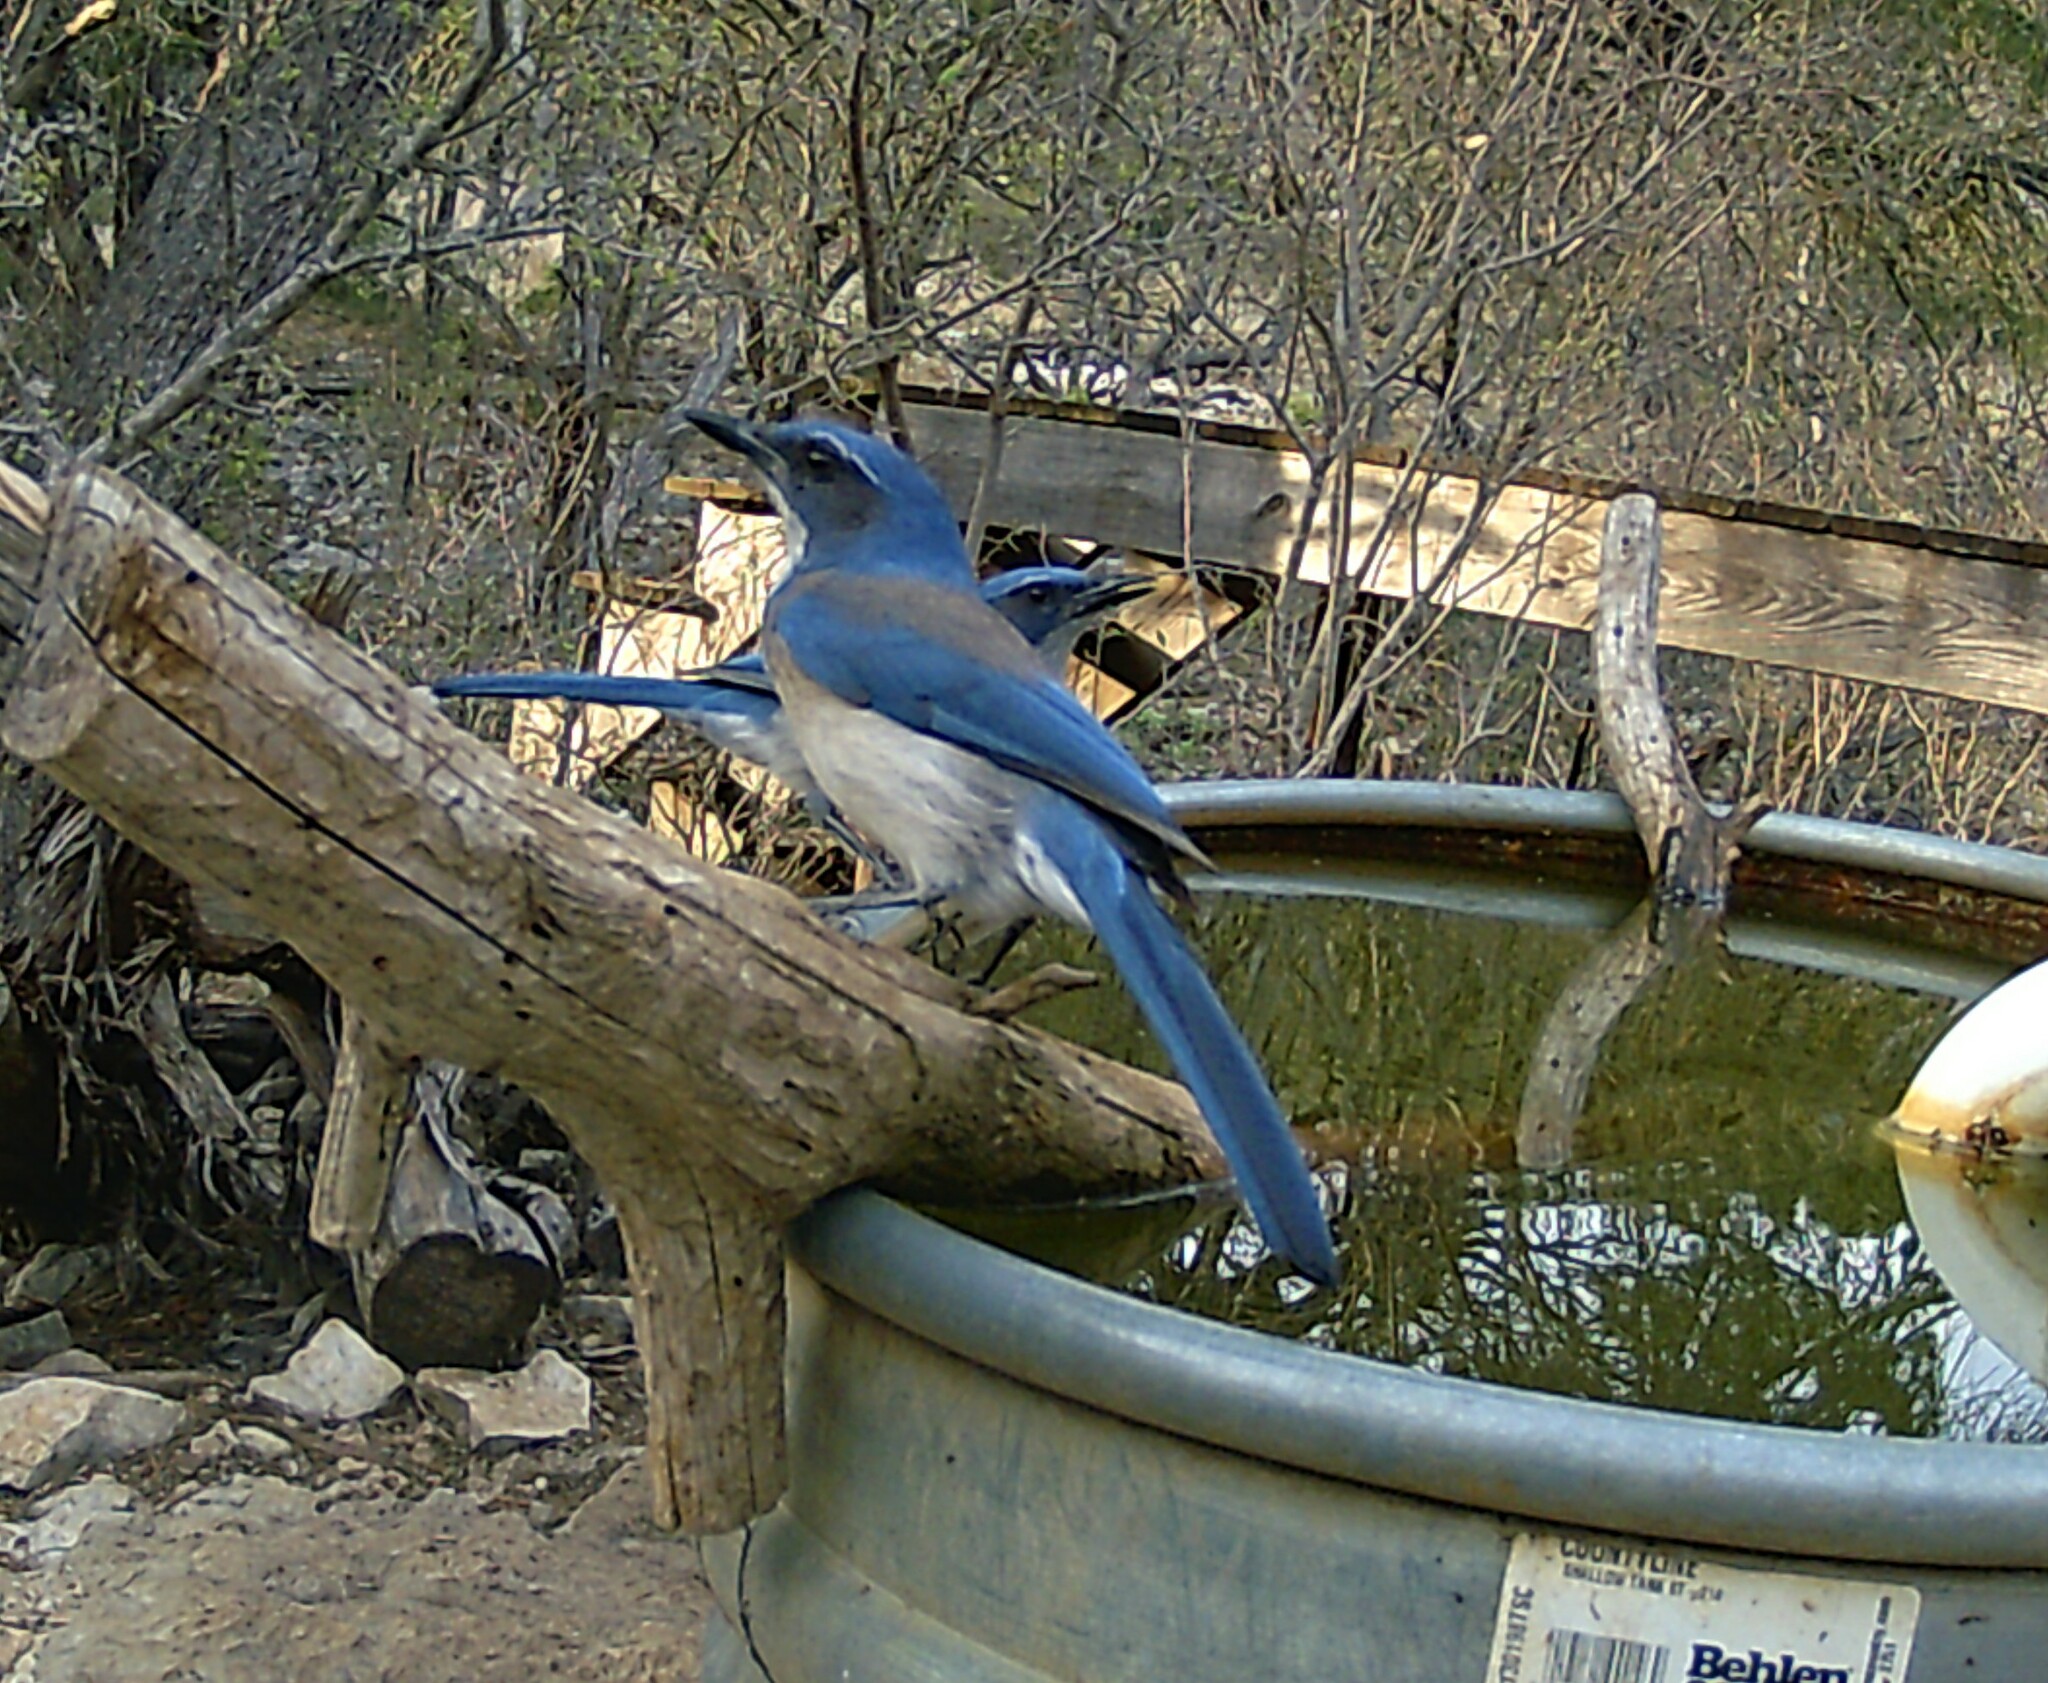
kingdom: Animalia
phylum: Chordata
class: Aves
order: Passeriformes
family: Corvidae
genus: Aphelocoma
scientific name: Aphelocoma woodhouseii
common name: Woodhouse's scrub-jay
